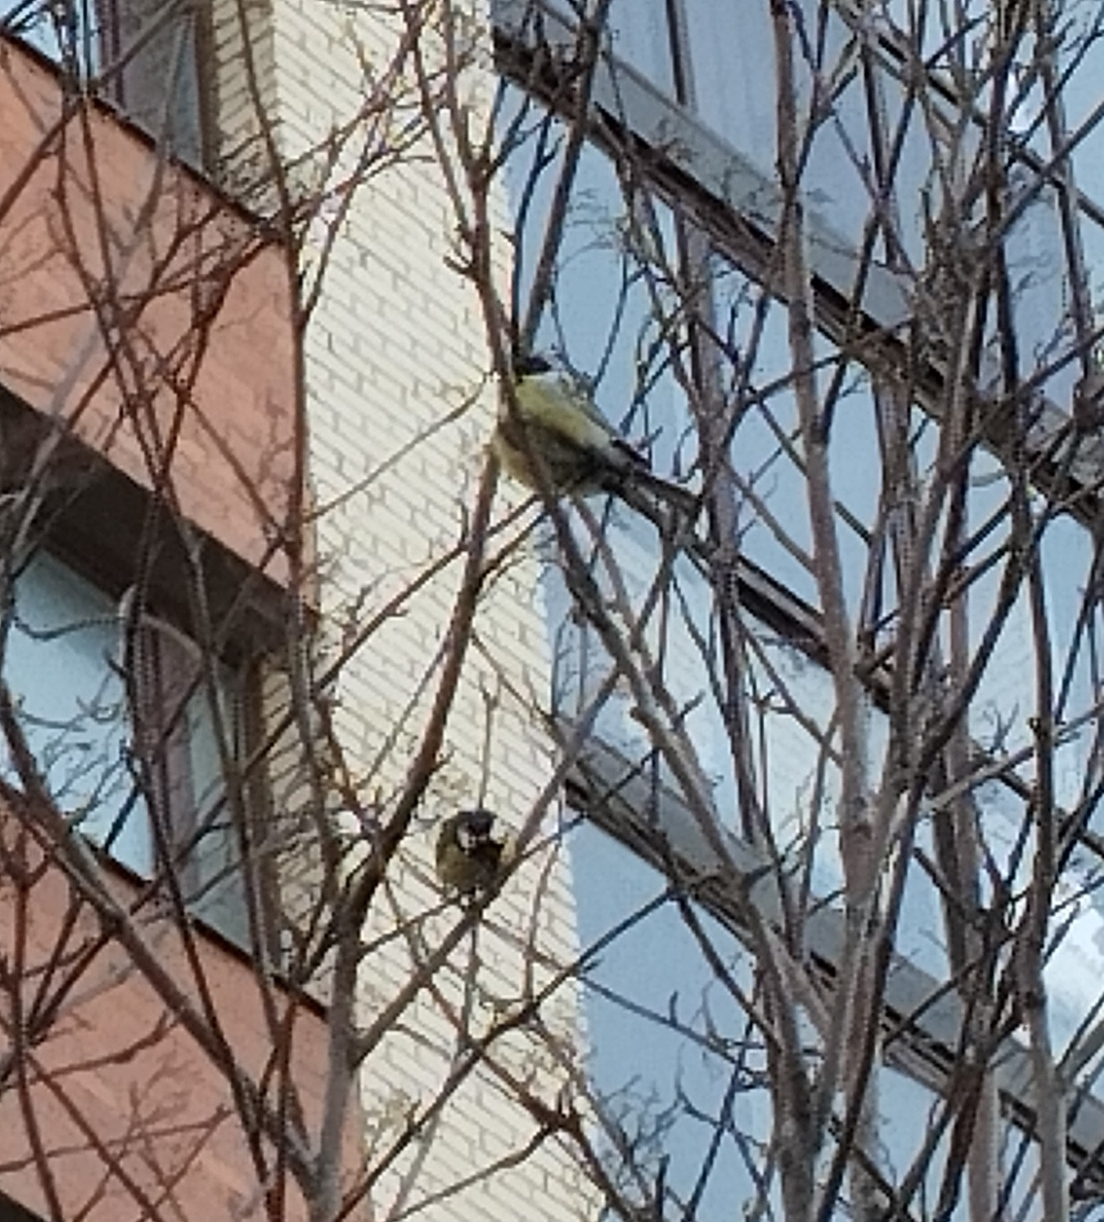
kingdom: Animalia
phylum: Chordata
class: Aves
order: Passeriformes
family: Paridae
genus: Parus
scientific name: Parus major
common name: Great tit
